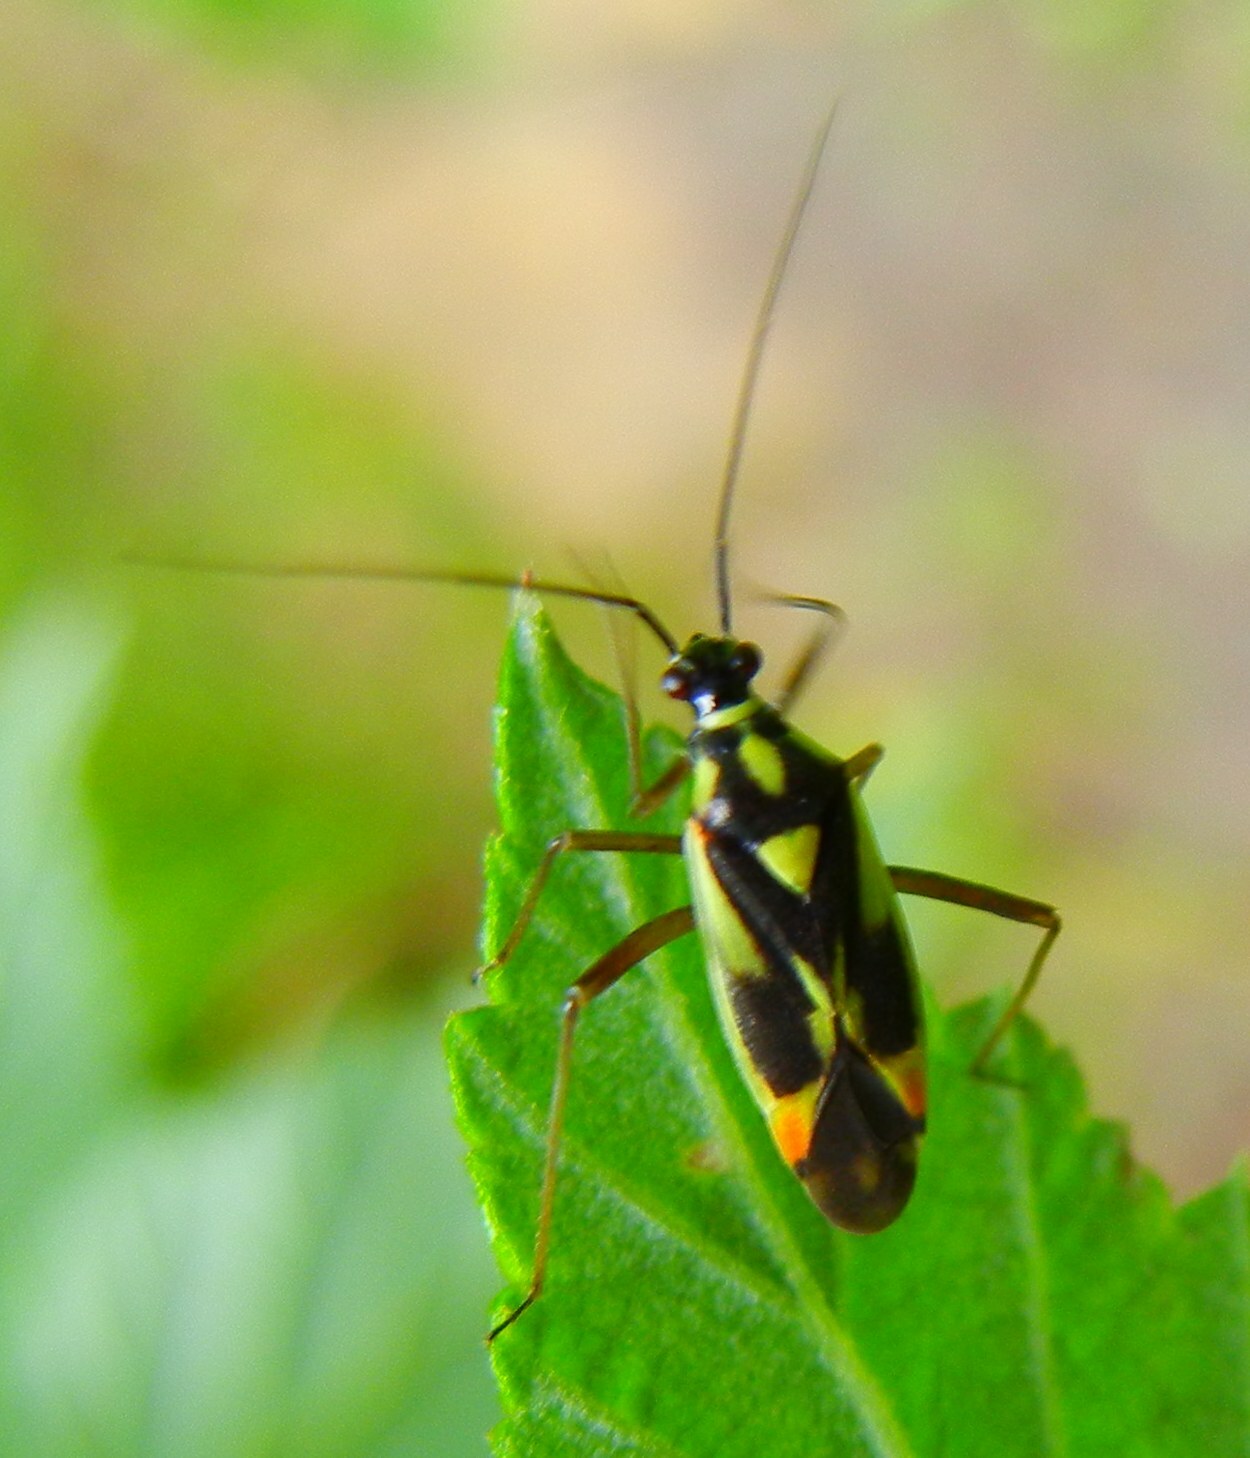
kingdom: Animalia
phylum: Arthropoda
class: Insecta
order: Hemiptera
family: Miridae
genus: Grypocoris
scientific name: Grypocoris stysi
